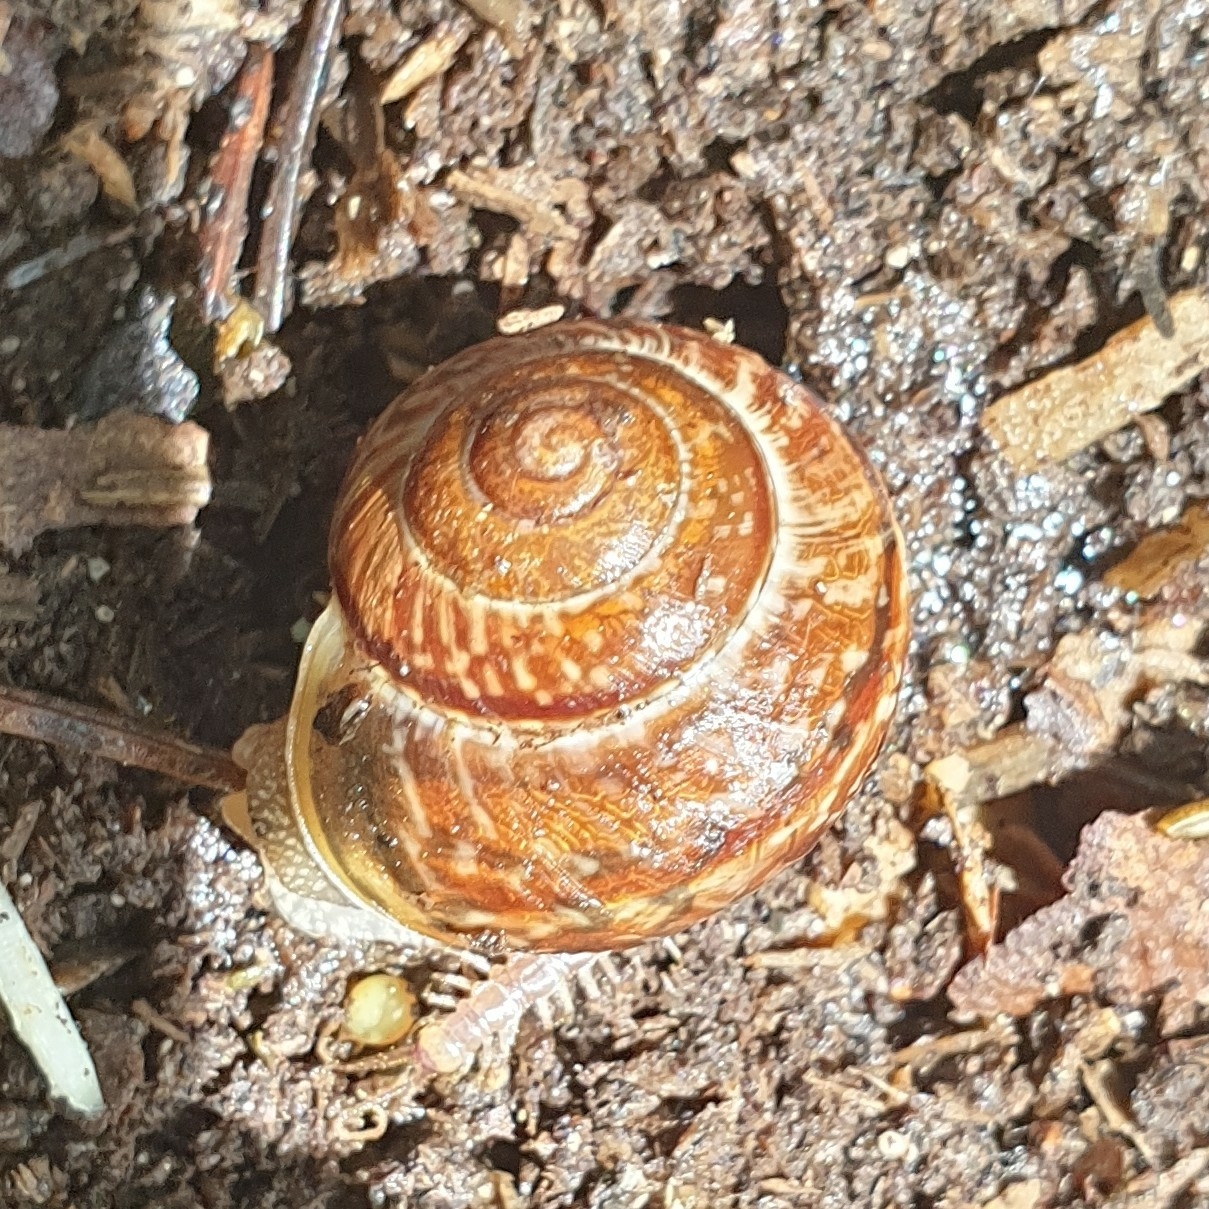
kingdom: Animalia
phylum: Mollusca
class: Gastropoda
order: Stylommatophora
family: Helicidae
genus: Arianta
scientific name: Arianta arbustorum
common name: Copse snail
